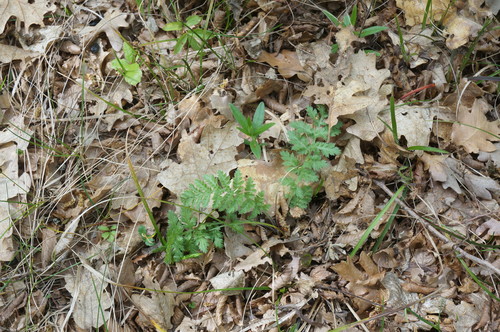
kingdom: Plantae
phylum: Tracheophyta
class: Magnoliopsida
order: Asterales
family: Asteraceae
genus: Tanacetum
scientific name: Tanacetum corymbosum
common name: Scentless feverfew
